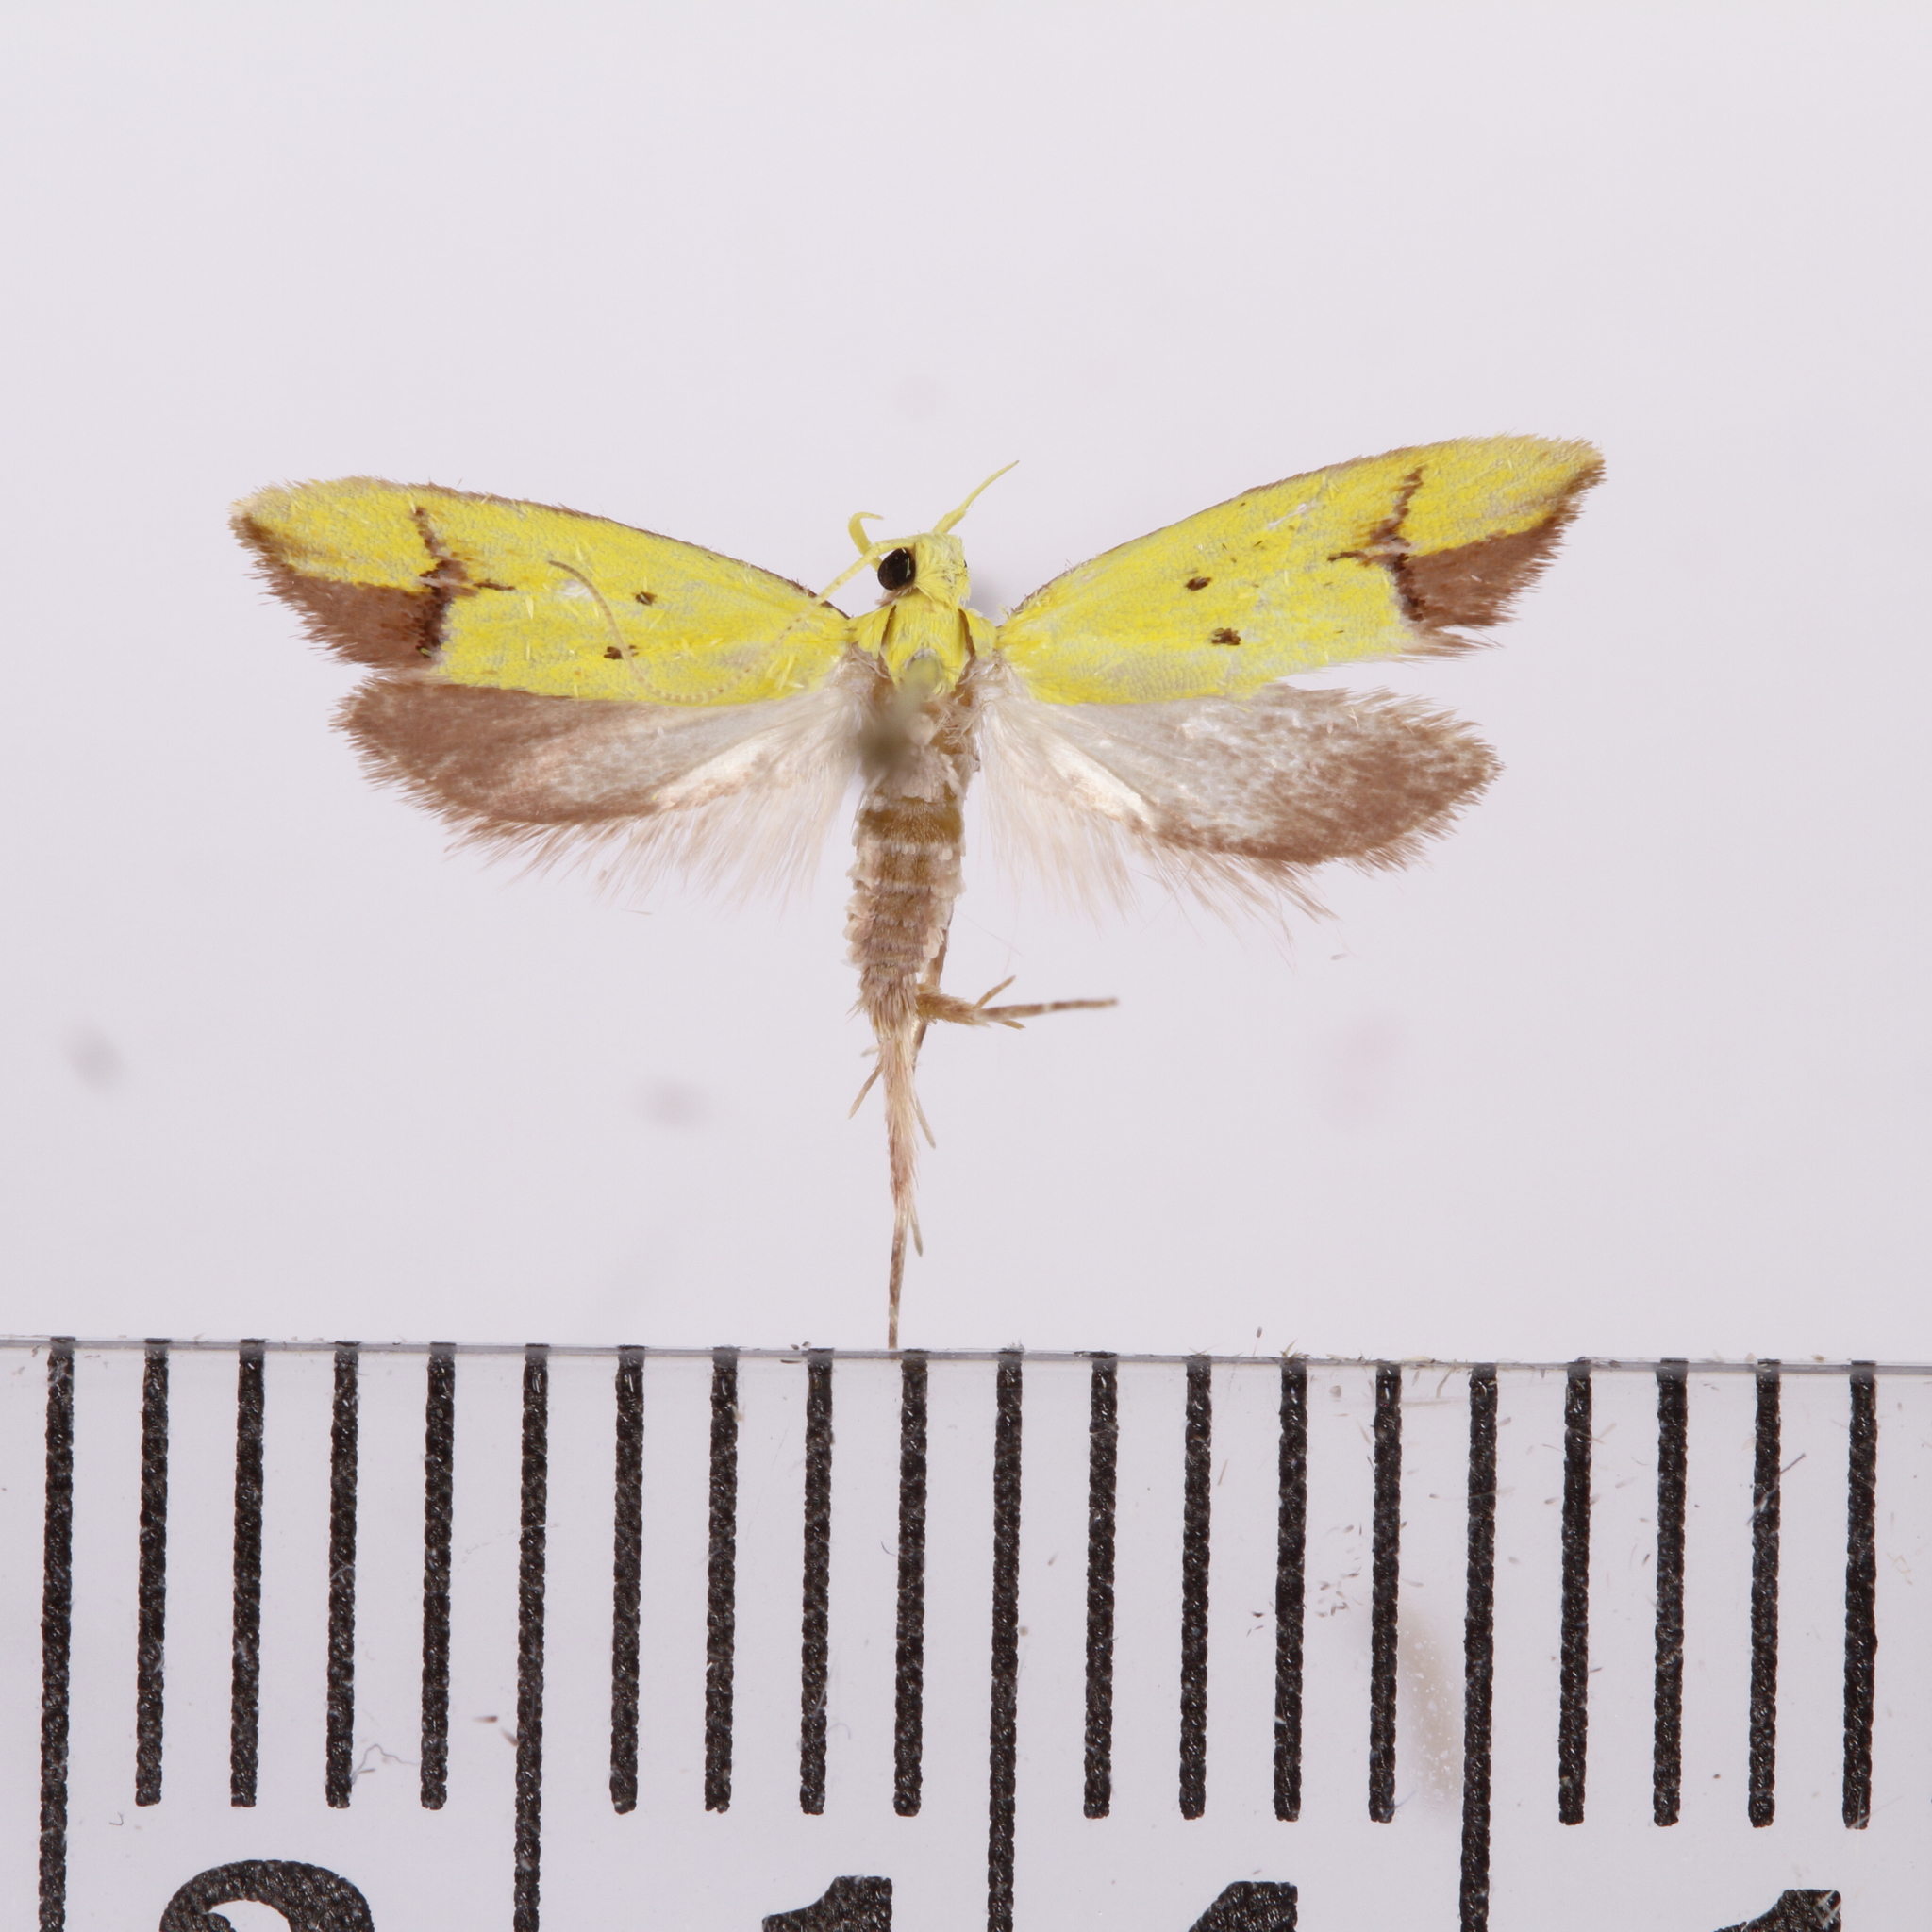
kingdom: Animalia
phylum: Arthropoda
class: Insecta
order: Lepidoptera
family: Oecophoridae
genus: Gymnobathra
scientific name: Gymnobathra flavidella
